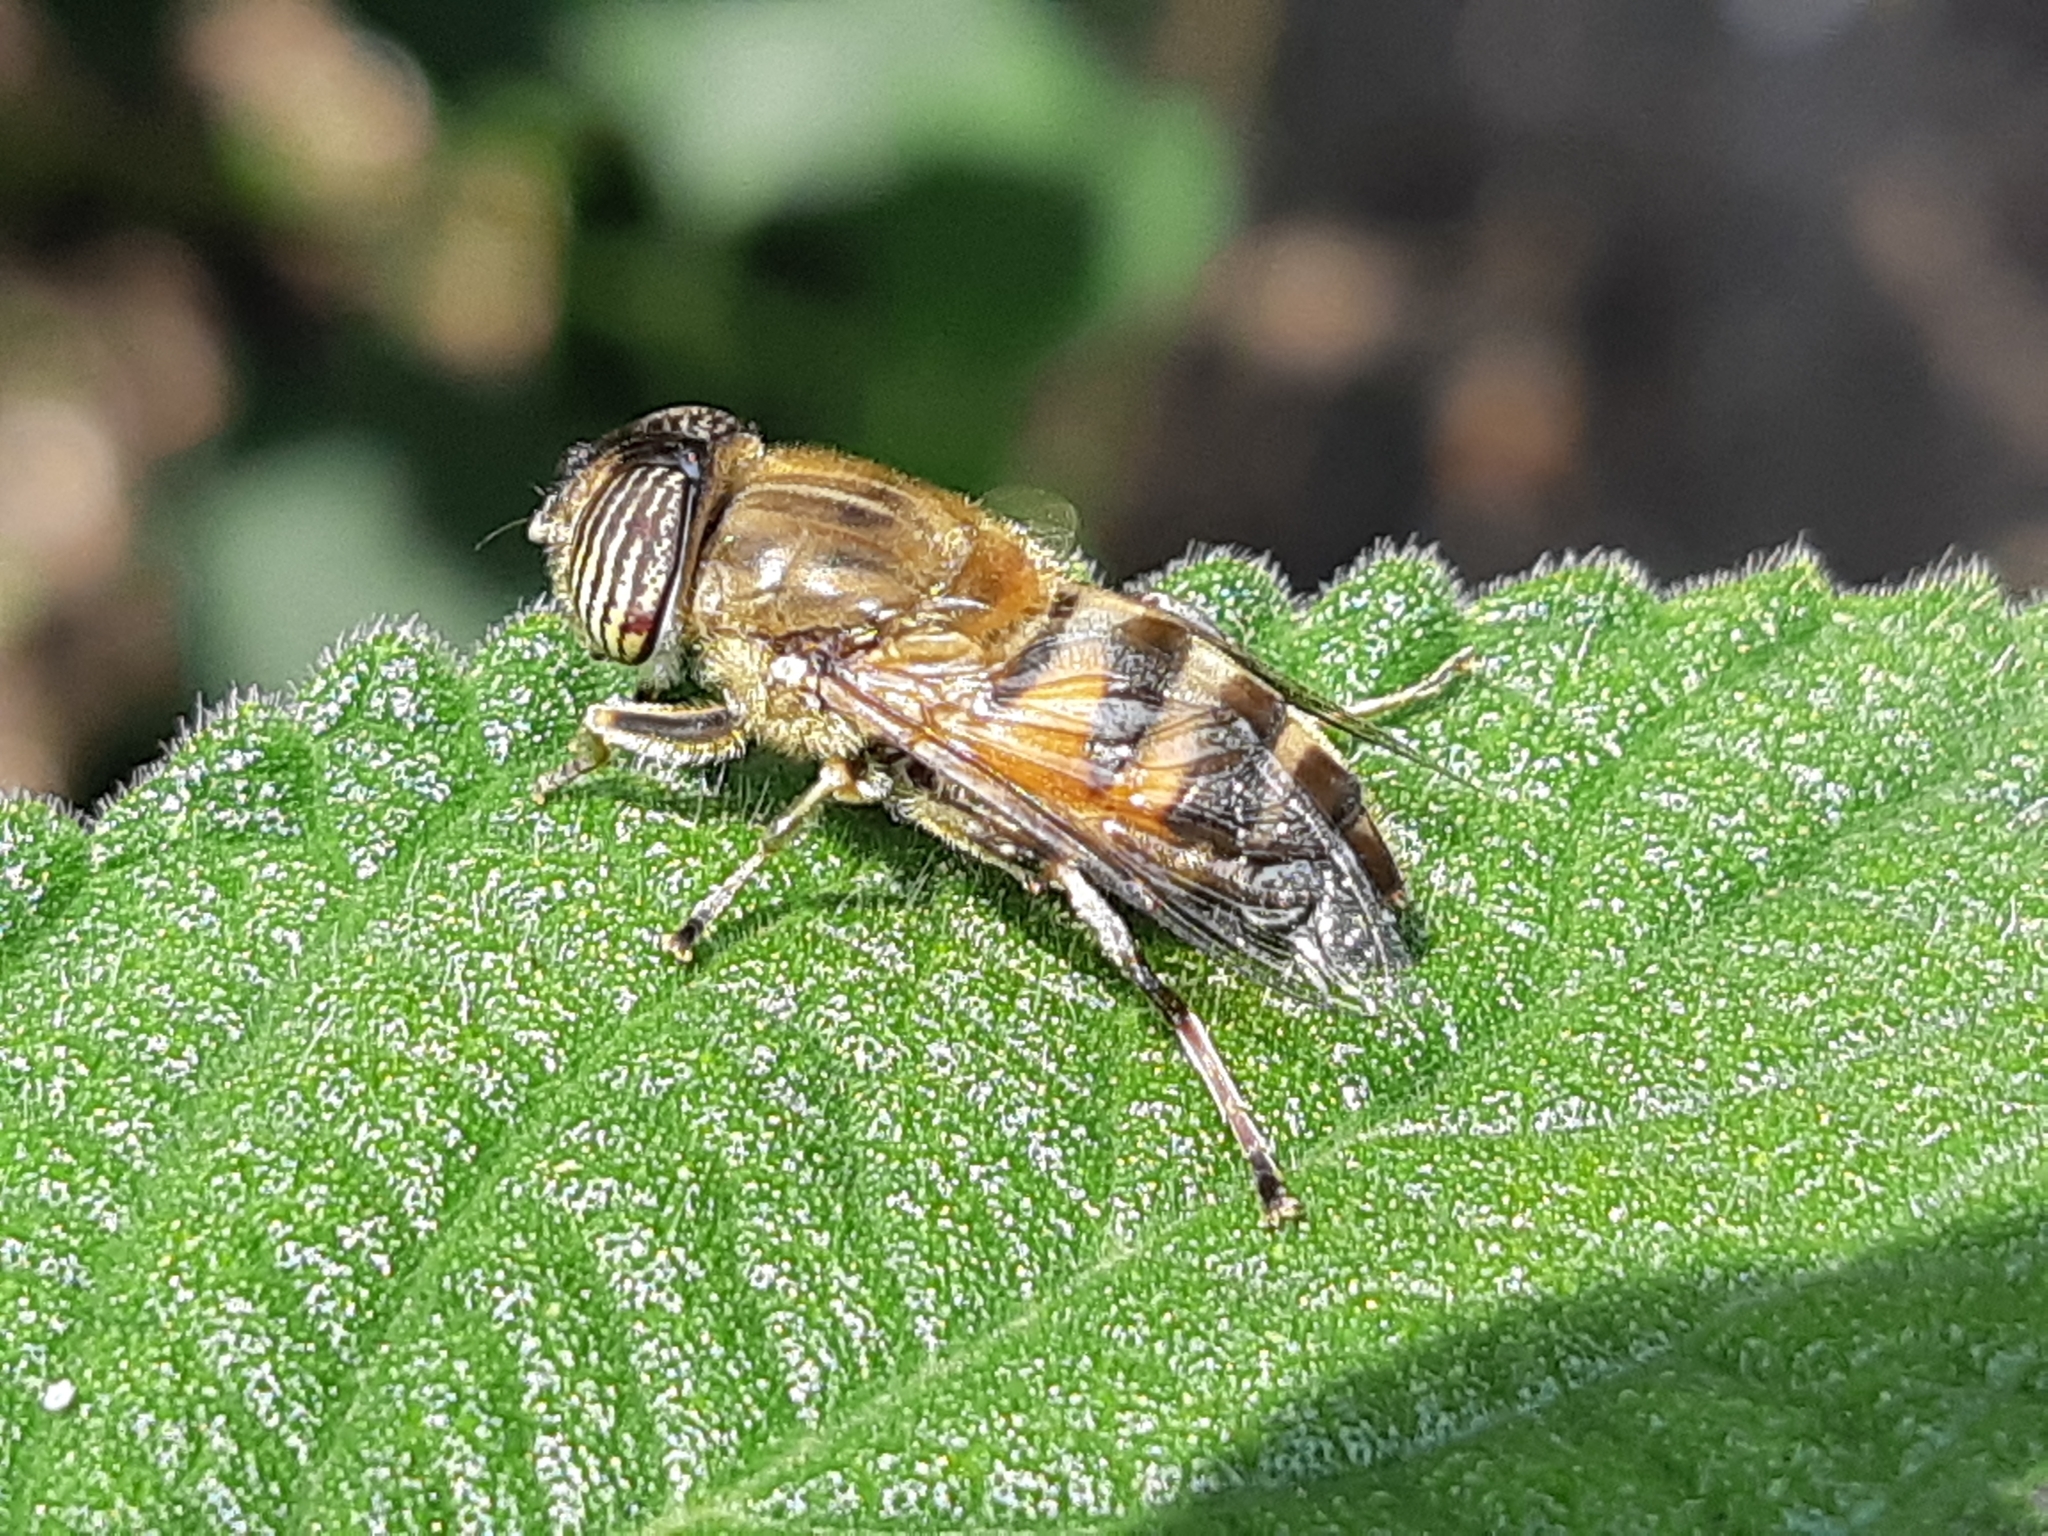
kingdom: Animalia
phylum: Arthropoda
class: Insecta
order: Diptera
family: Syrphidae
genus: Eristalinus
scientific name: Eristalinus taeniops
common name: Syrphid fly
